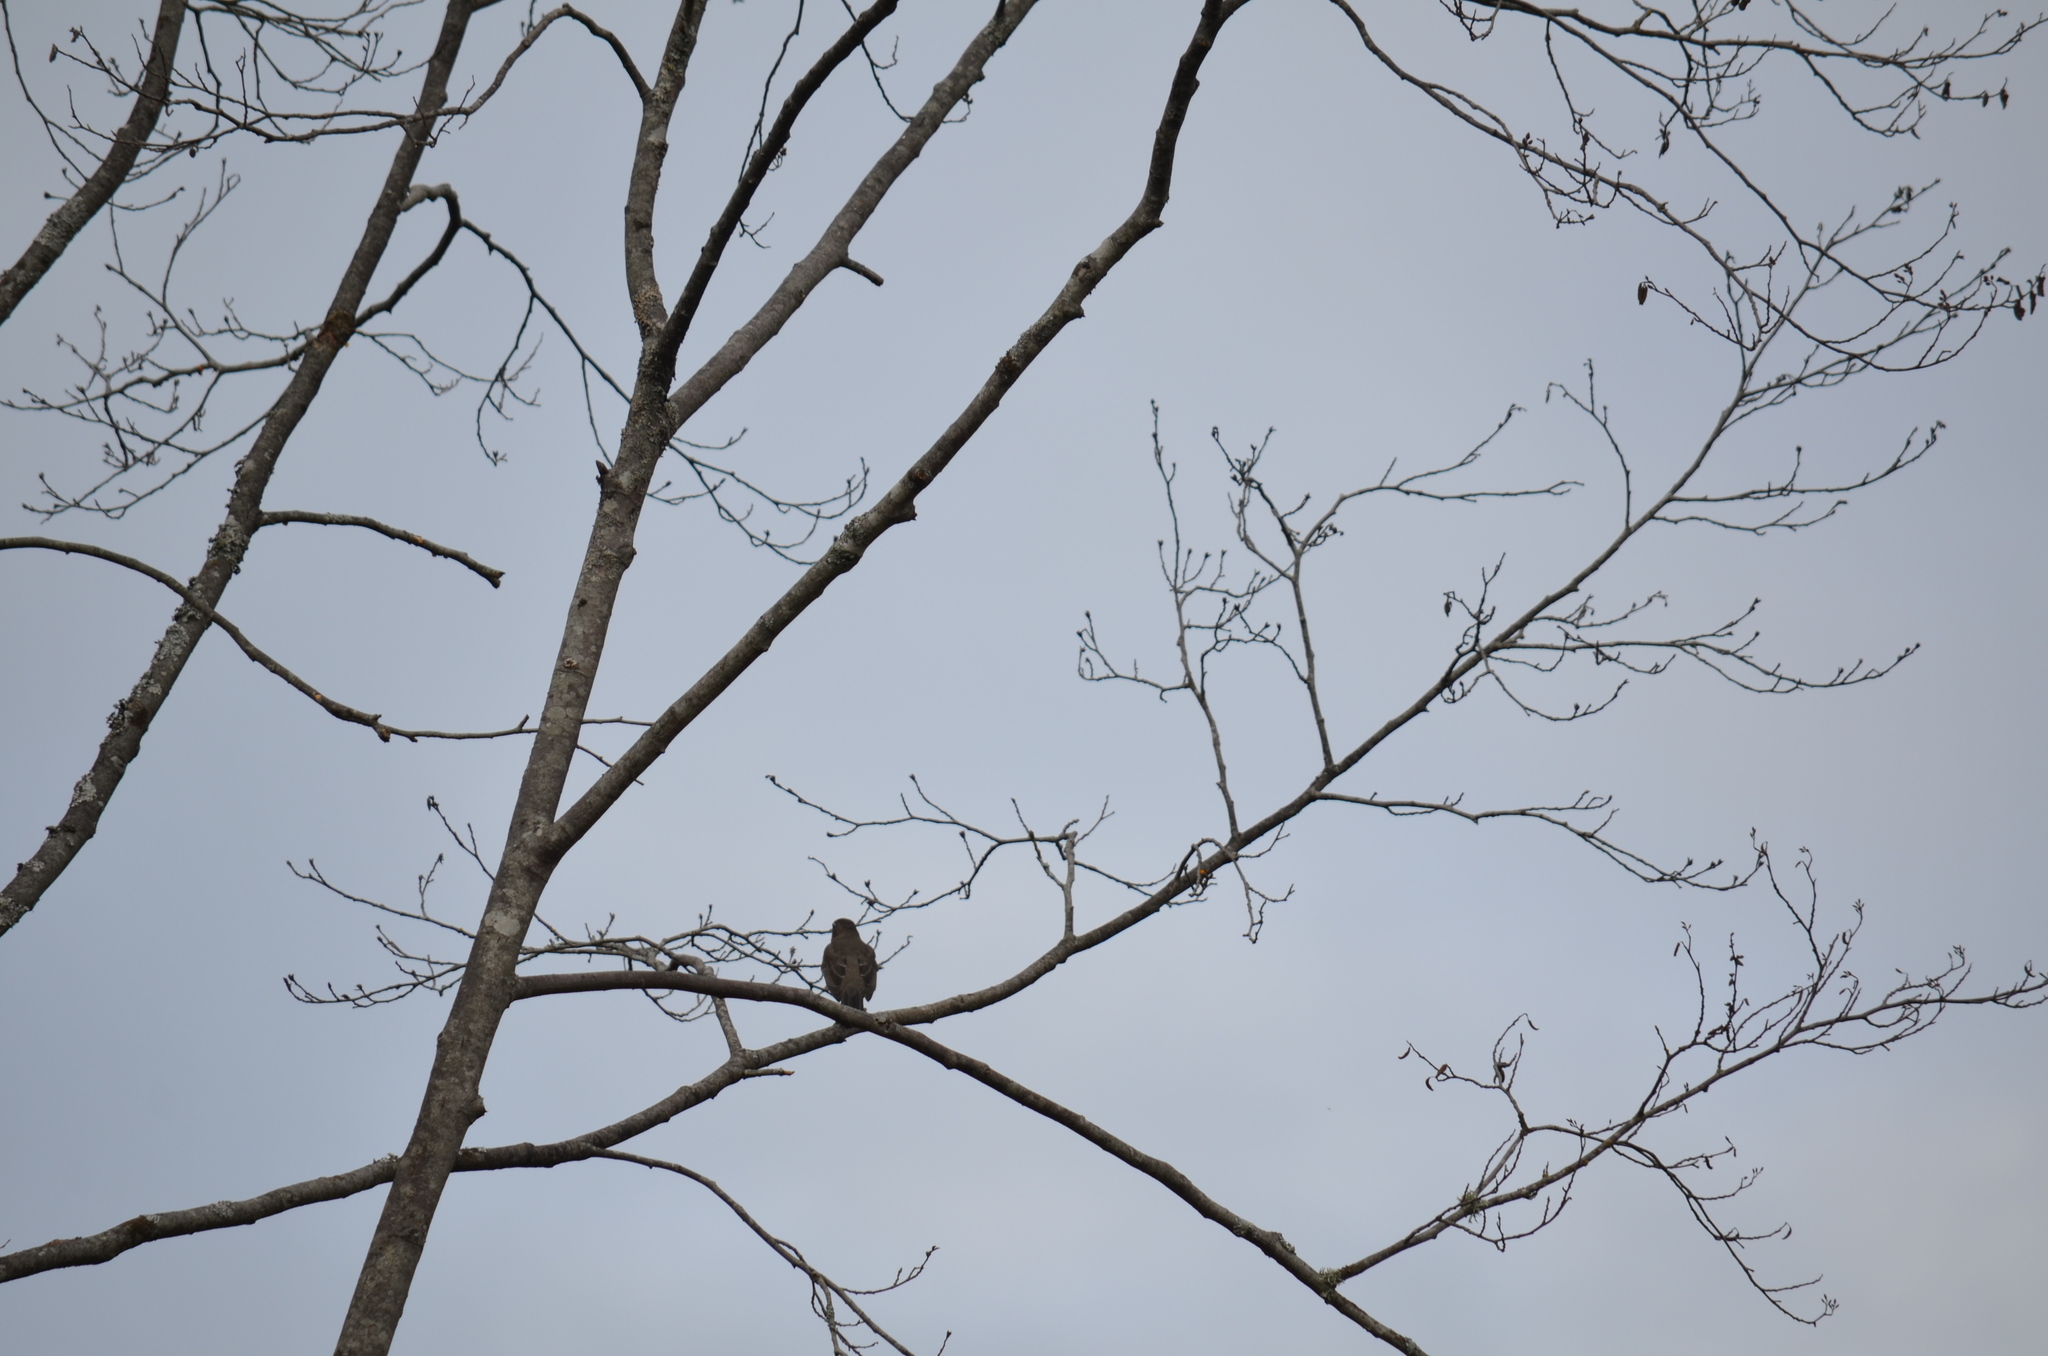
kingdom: Animalia
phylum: Chordata
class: Aves
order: Passeriformes
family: Turdidae
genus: Turdus
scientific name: Turdus migratorius
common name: American robin
